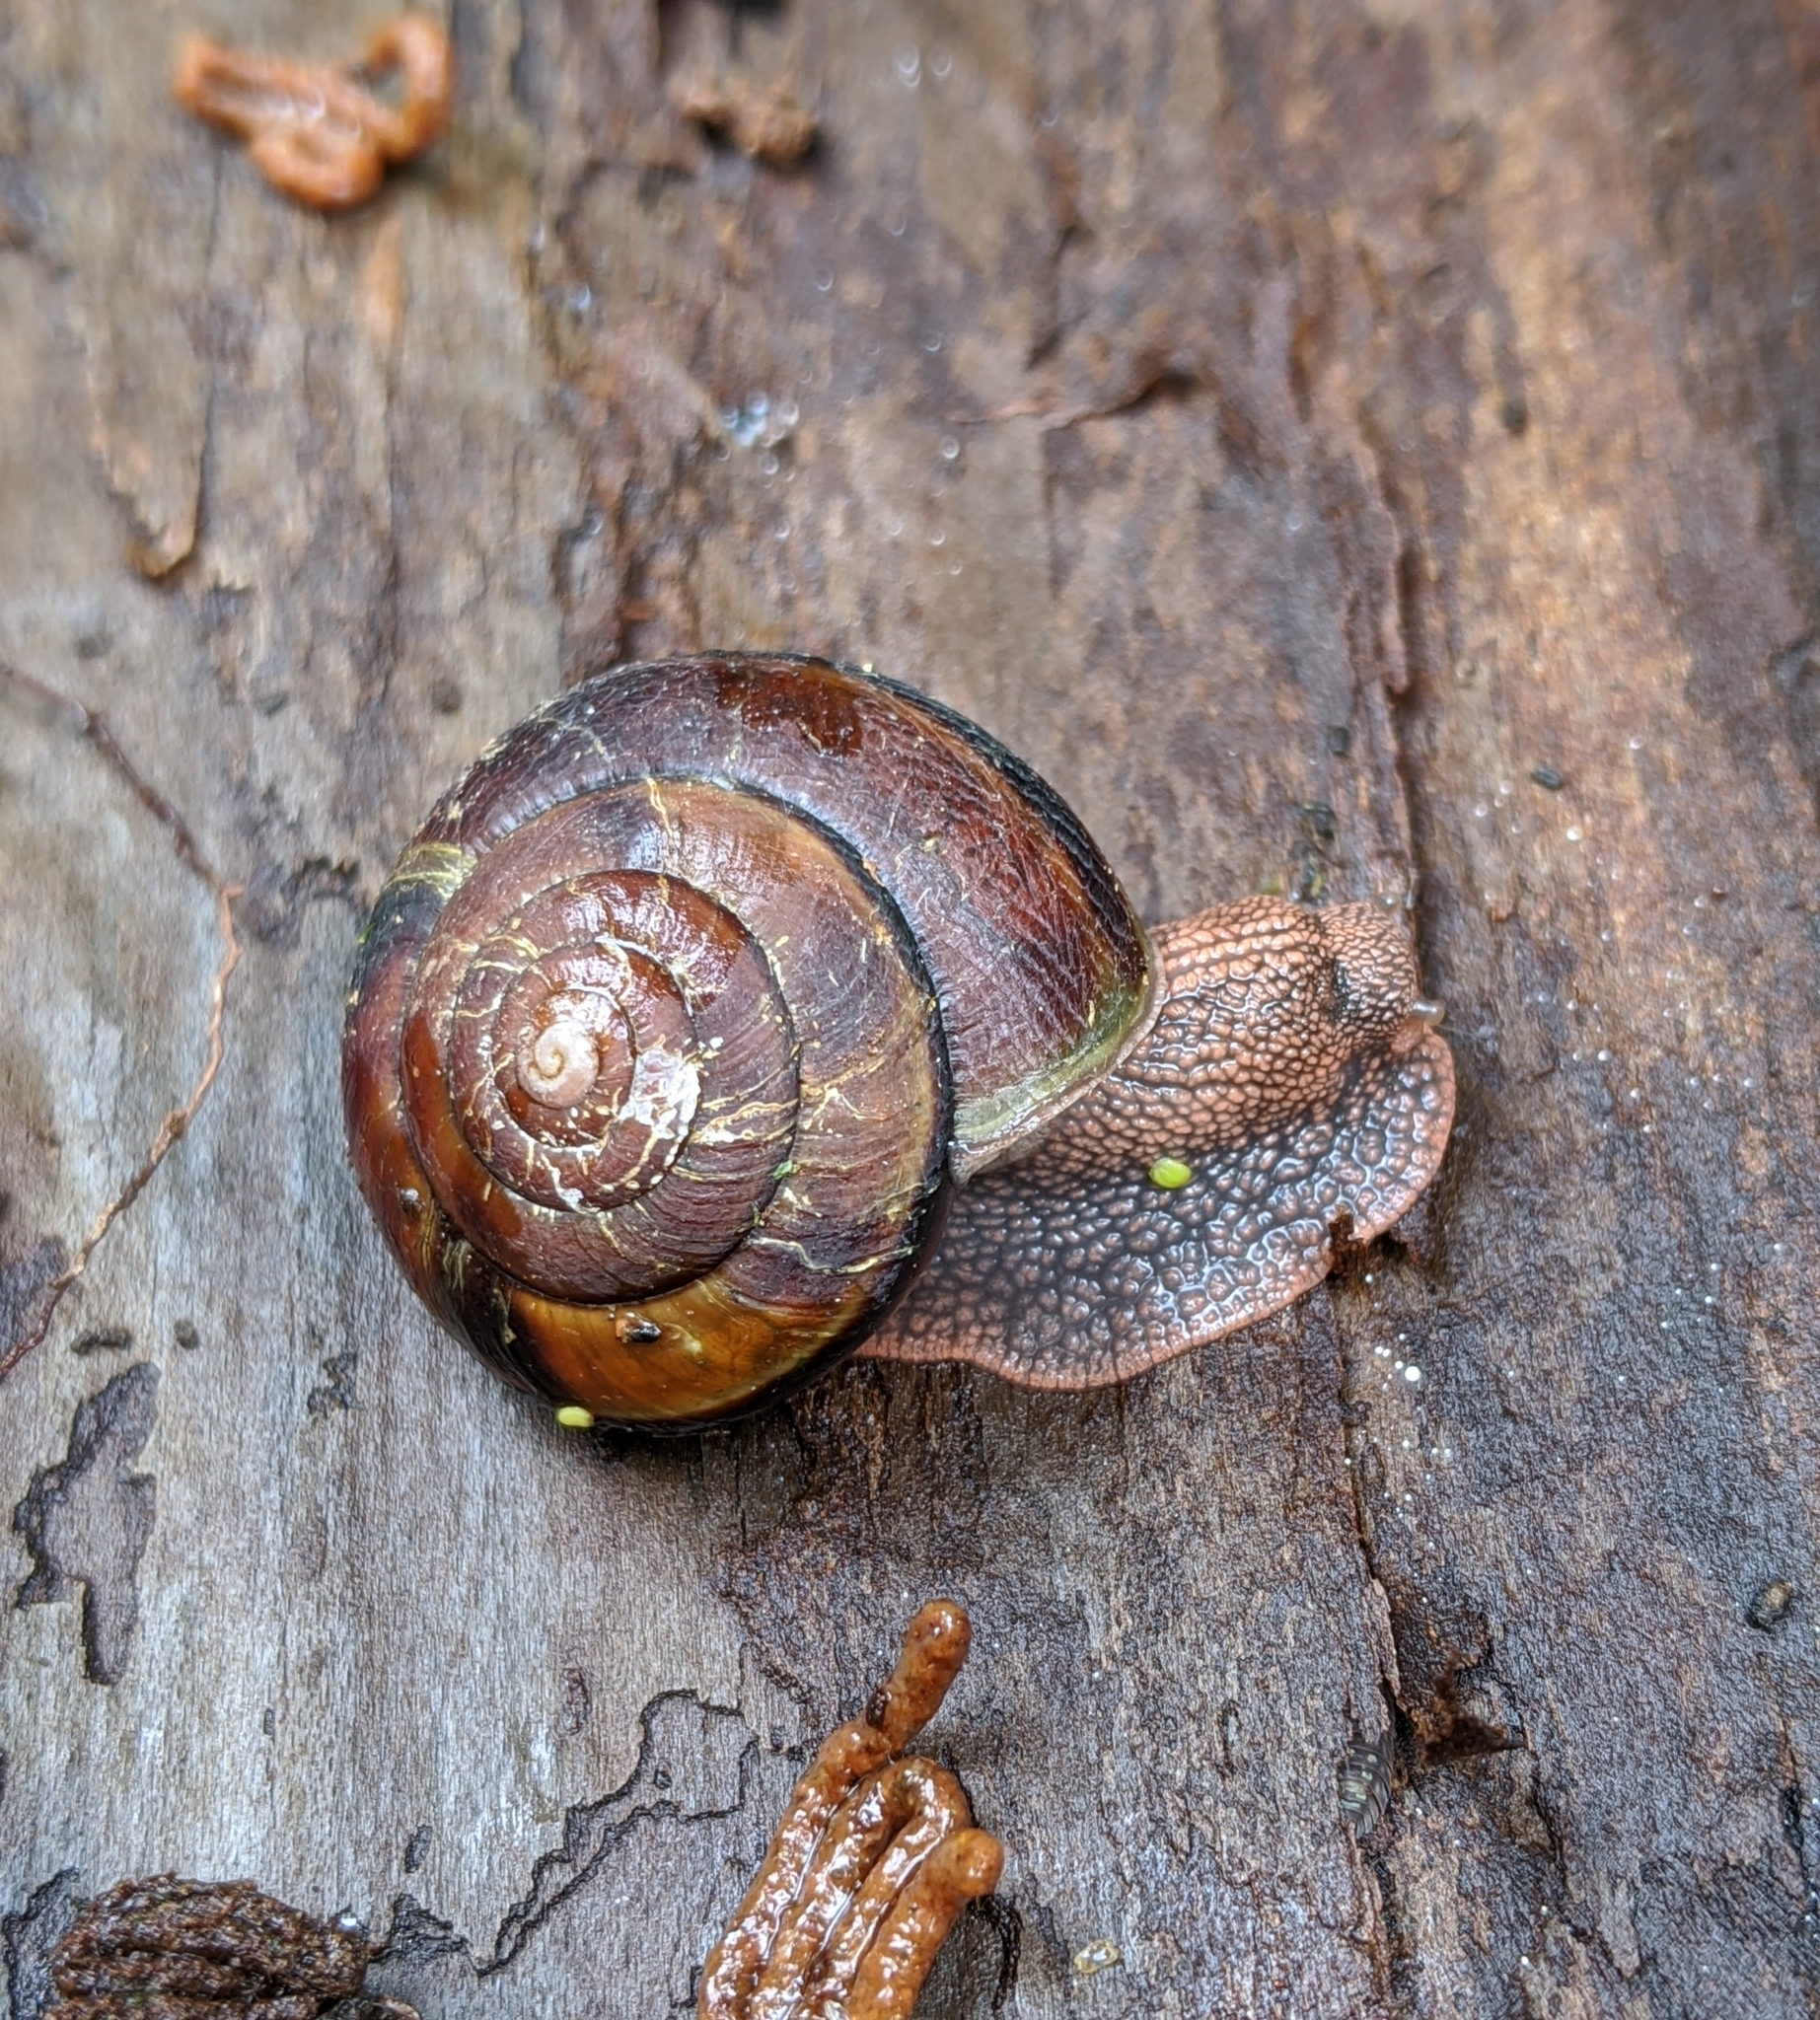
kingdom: Animalia
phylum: Mollusca
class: Gastropoda
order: Stylommatophora
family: Xanthonychidae
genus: Monadenia
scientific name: Monadenia fidelis
